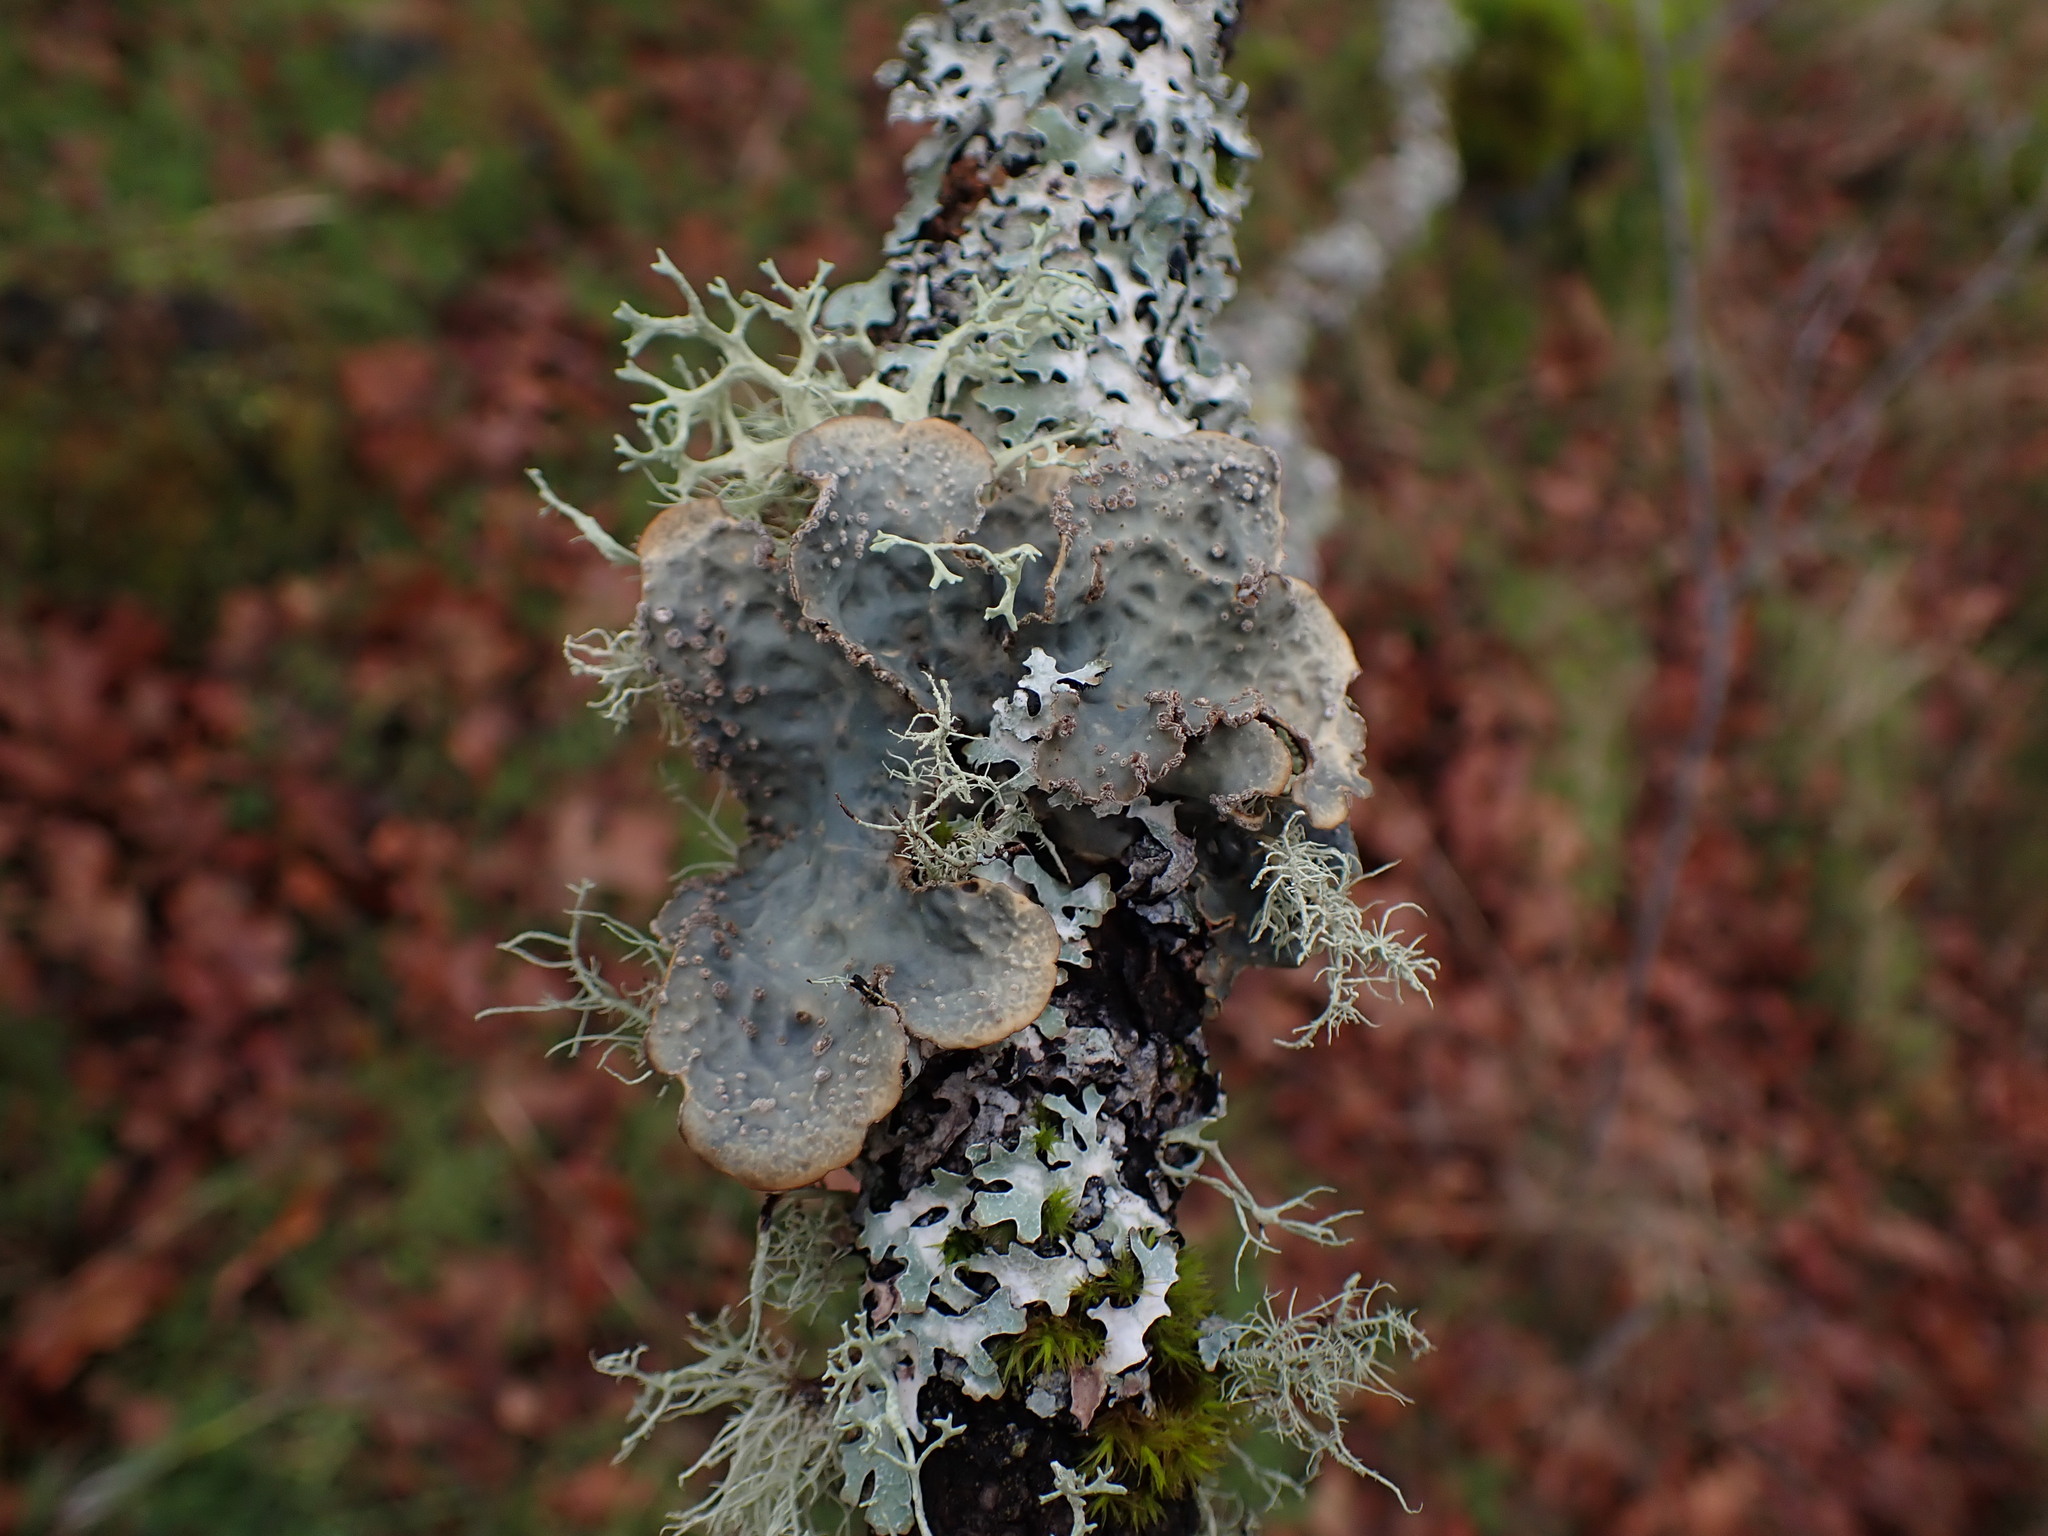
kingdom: Fungi
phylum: Ascomycota
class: Lecanoromycetes
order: Peltigerales
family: Lobariaceae
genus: Lobarina
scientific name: Lobarina scrobiculata
